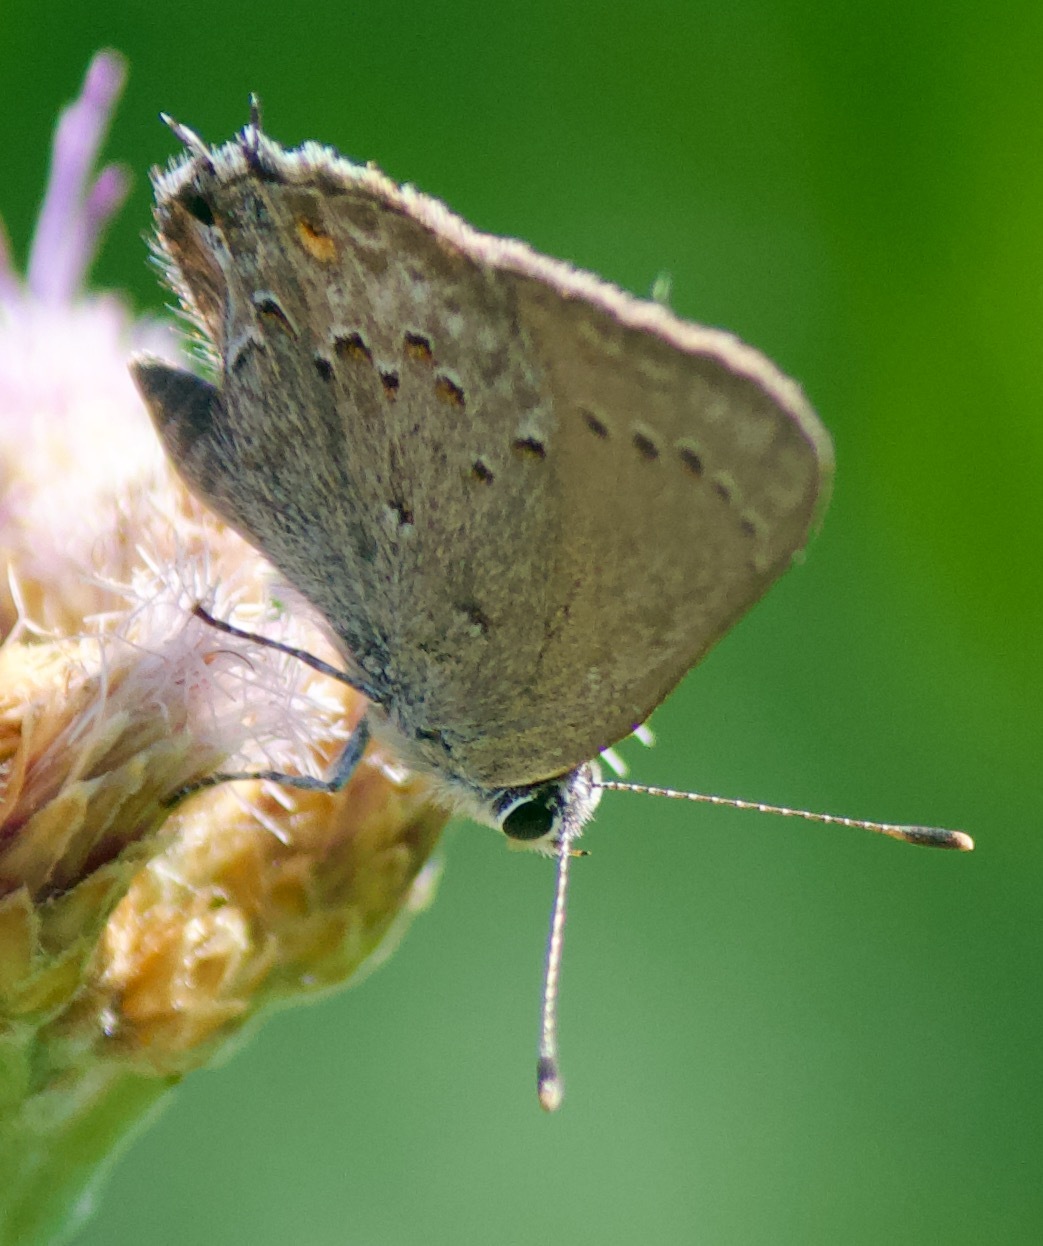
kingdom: Animalia
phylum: Arthropoda
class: Insecta
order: Lepidoptera
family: Lycaenidae
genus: Strymon
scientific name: Strymon eurytulus
